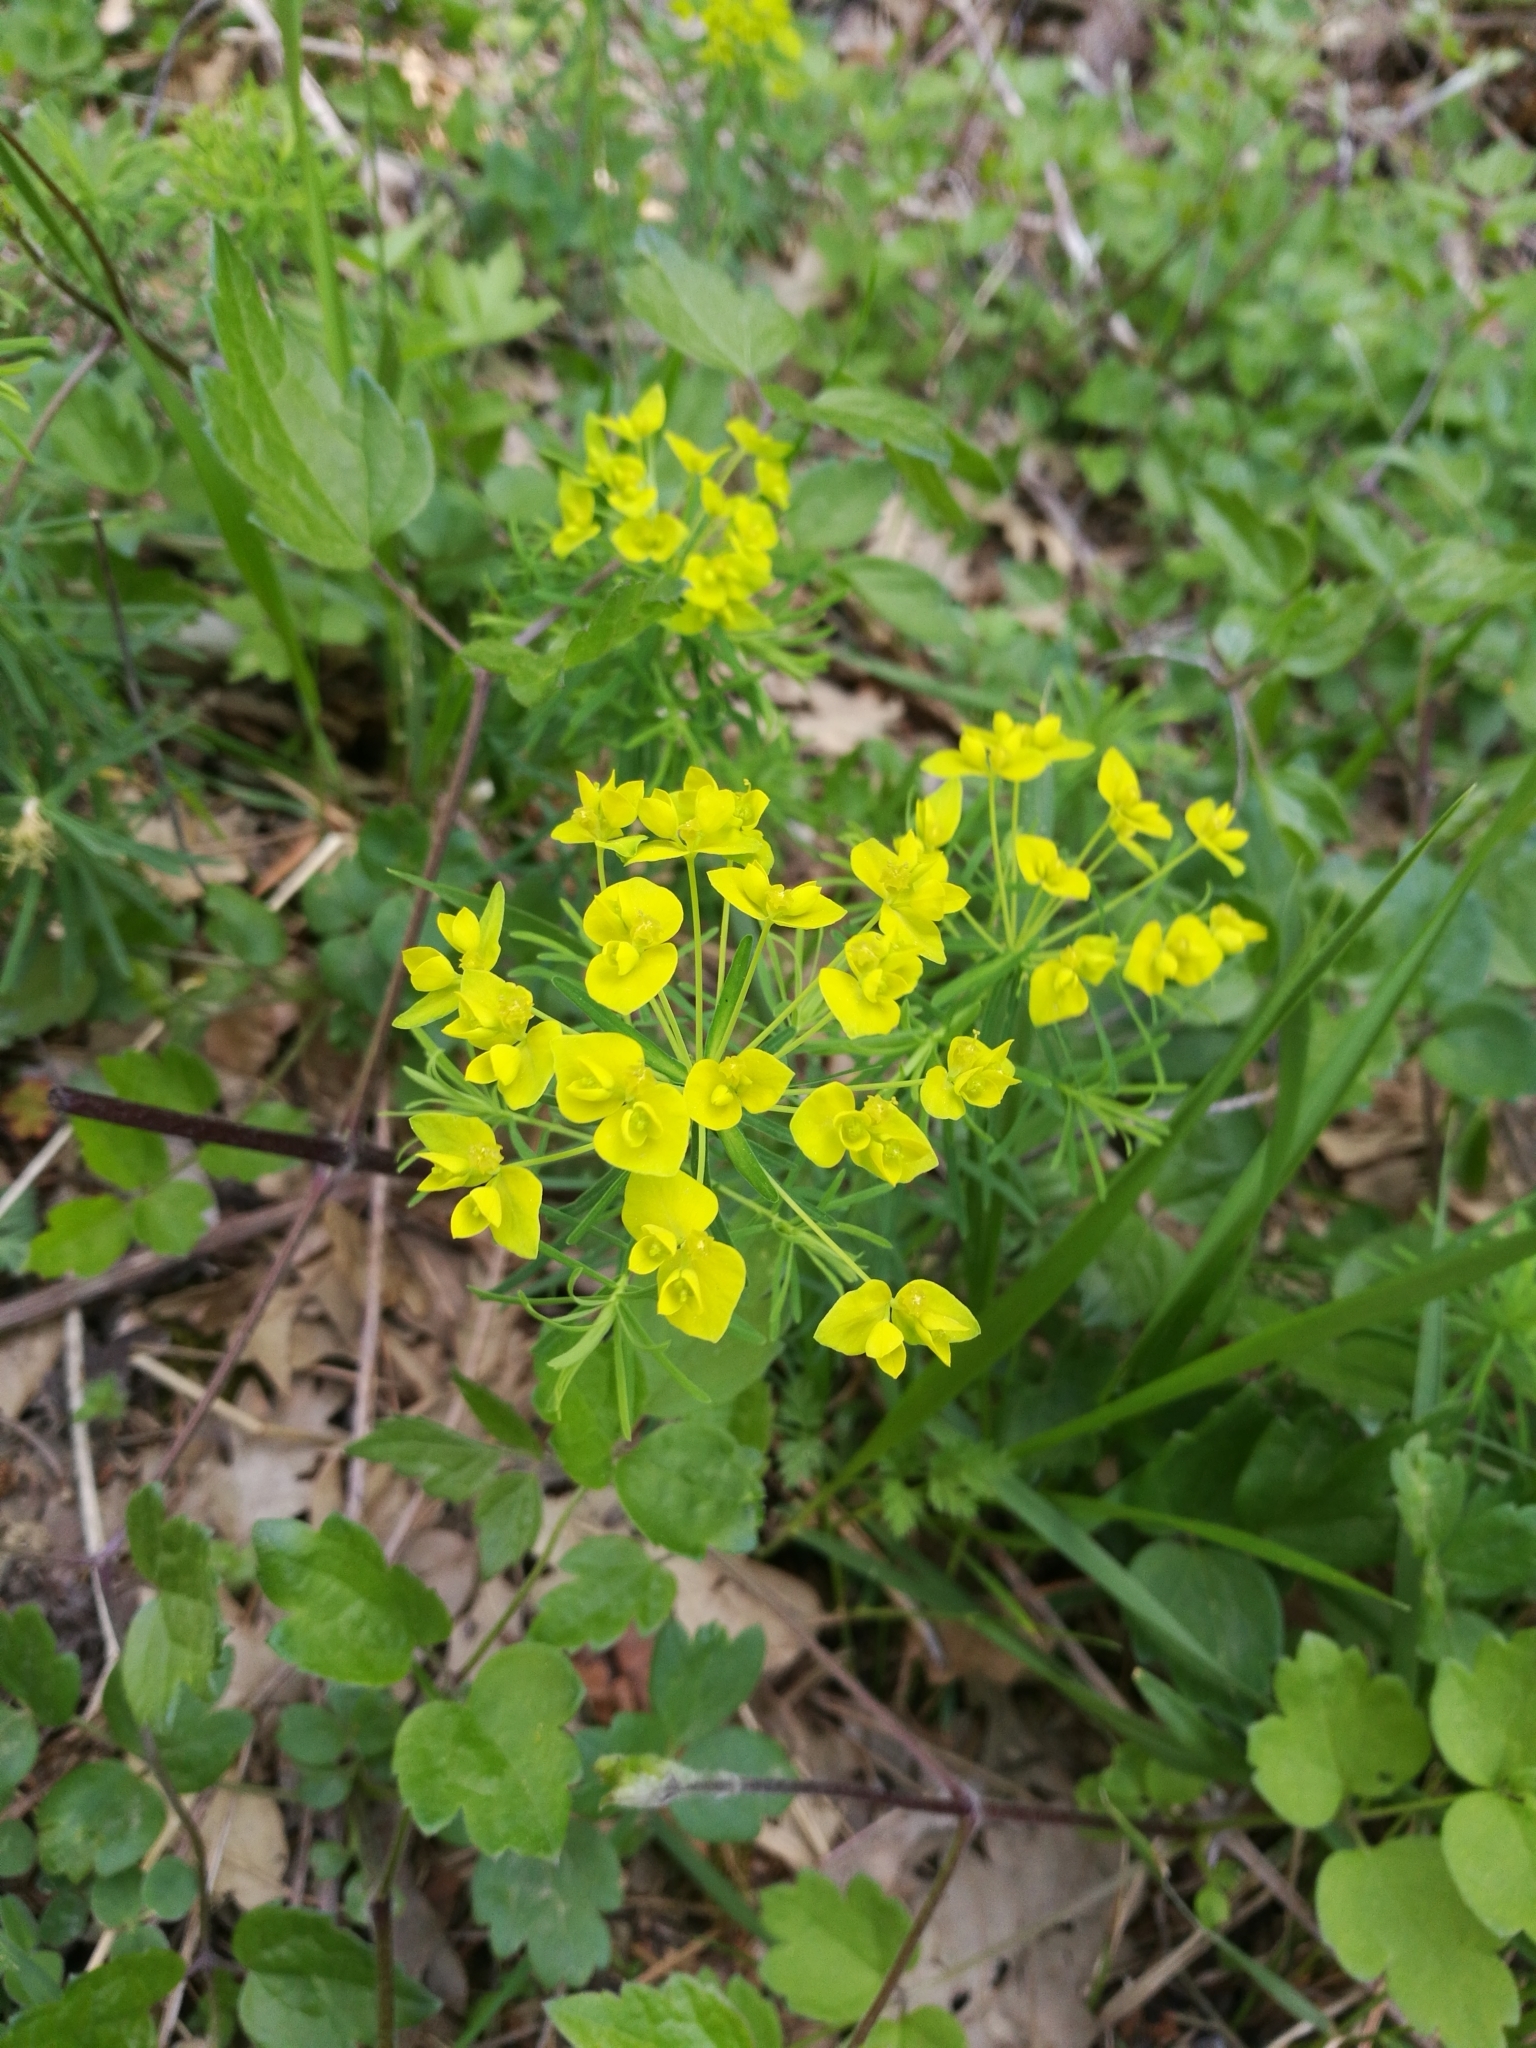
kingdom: Plantae
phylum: Tracheophyta
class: Magnoliopsida
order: Malpighiales
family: Euphorbiaceae
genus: Euphorbia
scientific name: Euphorbia cyparissias
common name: Cypress spurge
